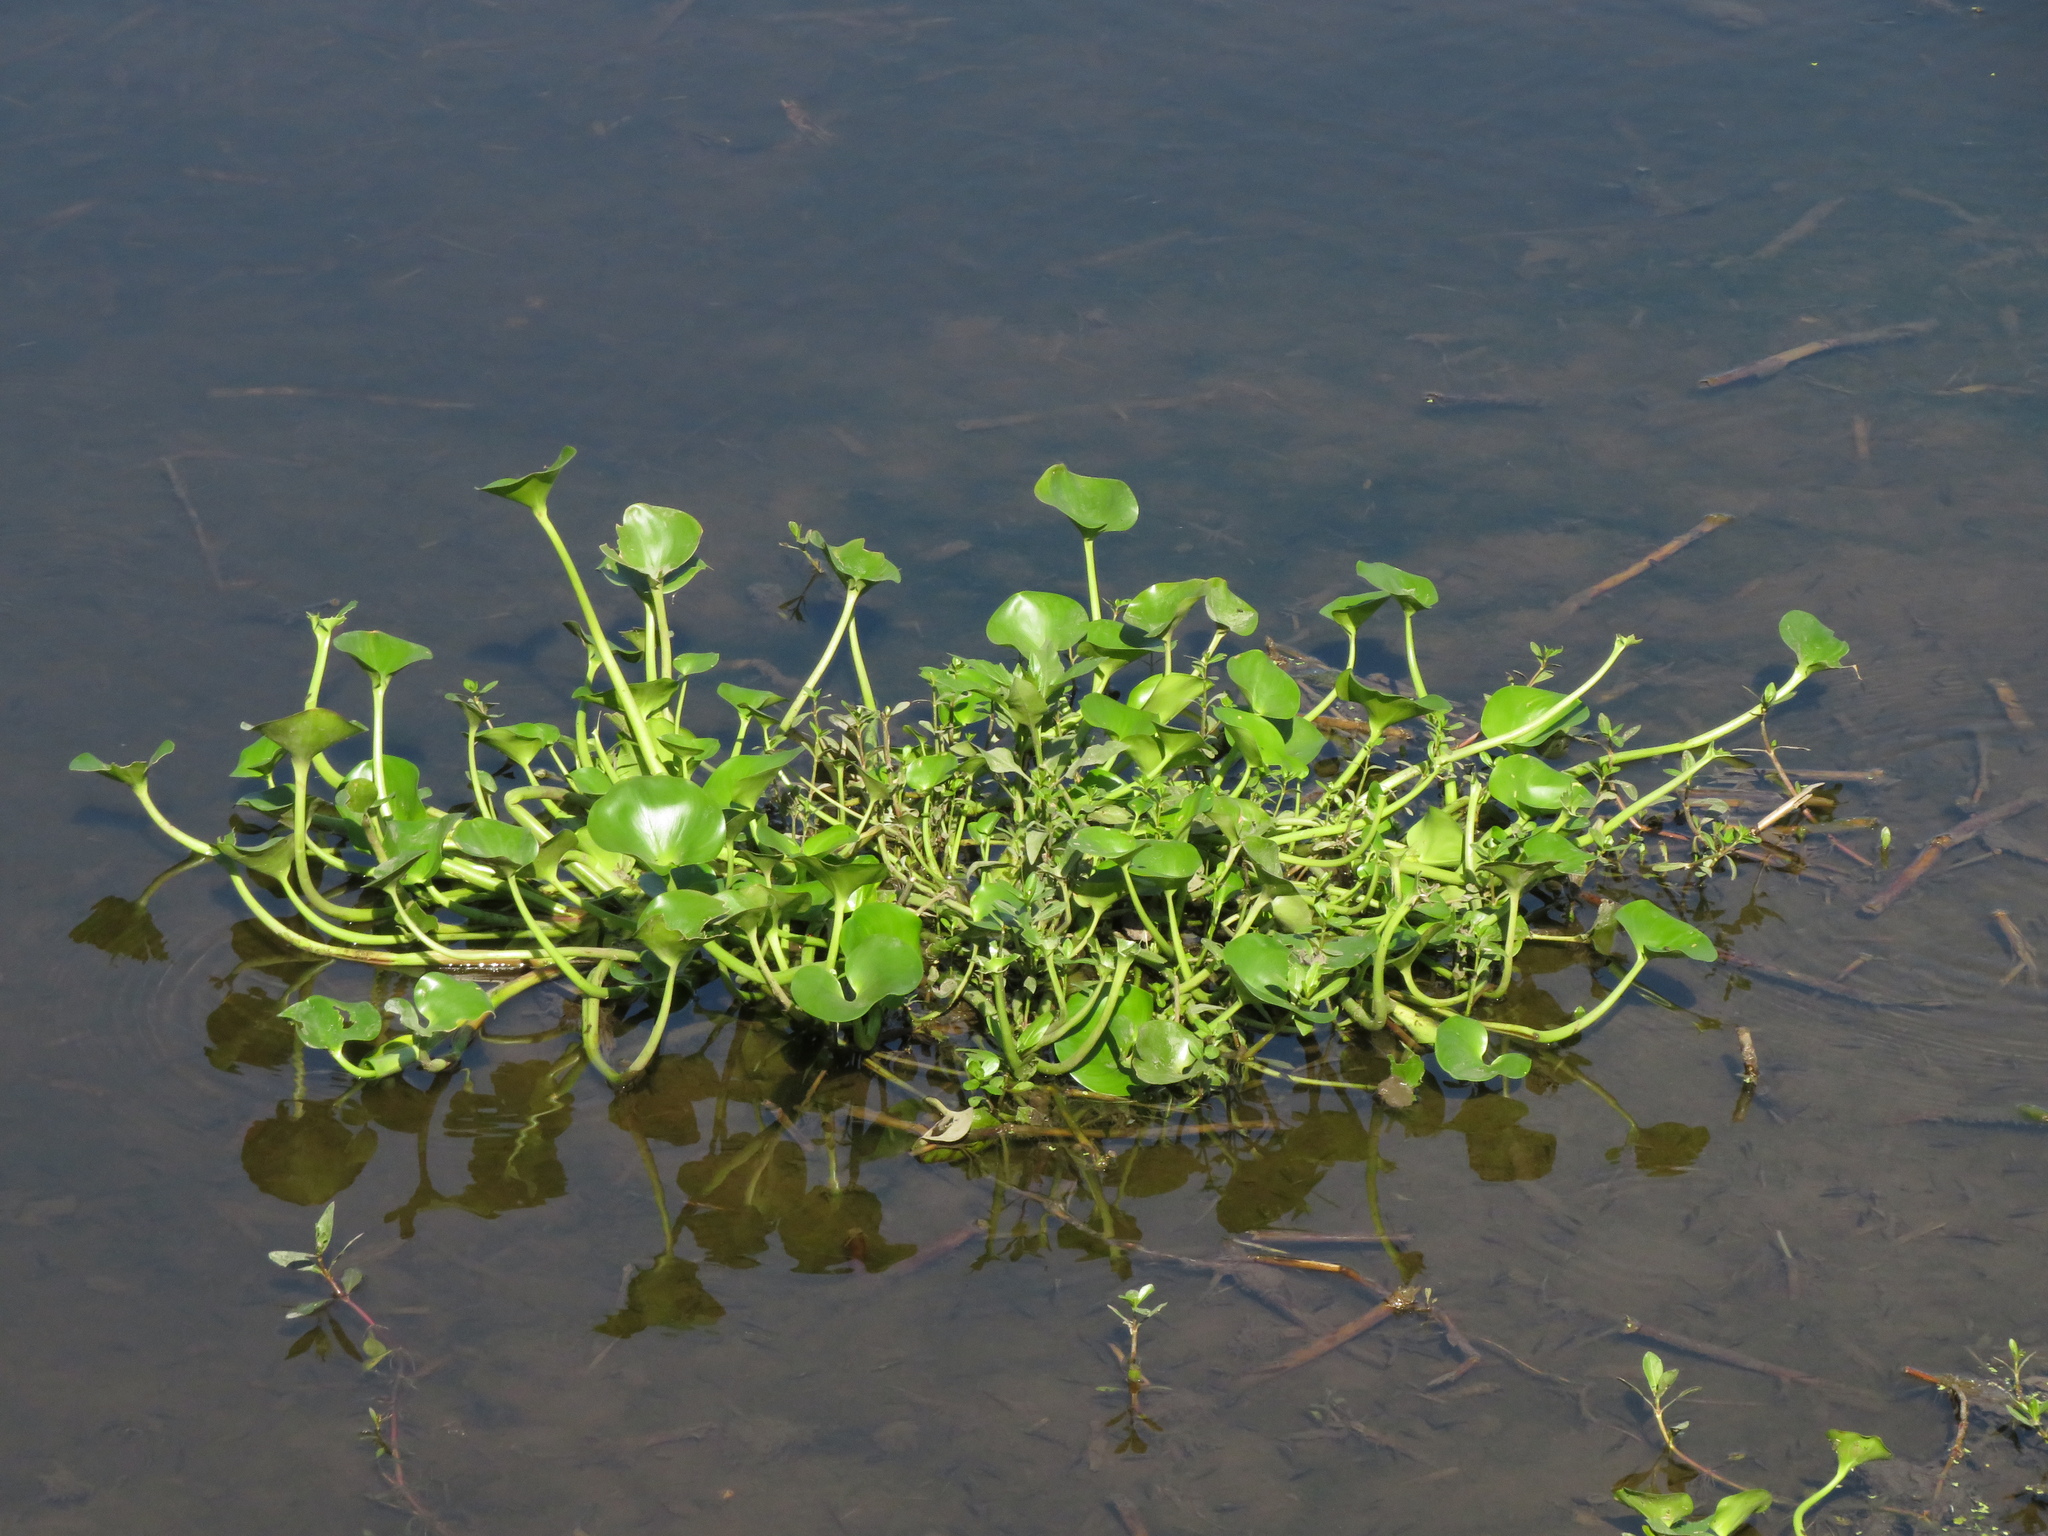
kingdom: Plantae
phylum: Tracheophyta
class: Liliopsida
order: Commelinales
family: Pontederiaceae
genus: Pontederia
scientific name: Pontederia azurea
